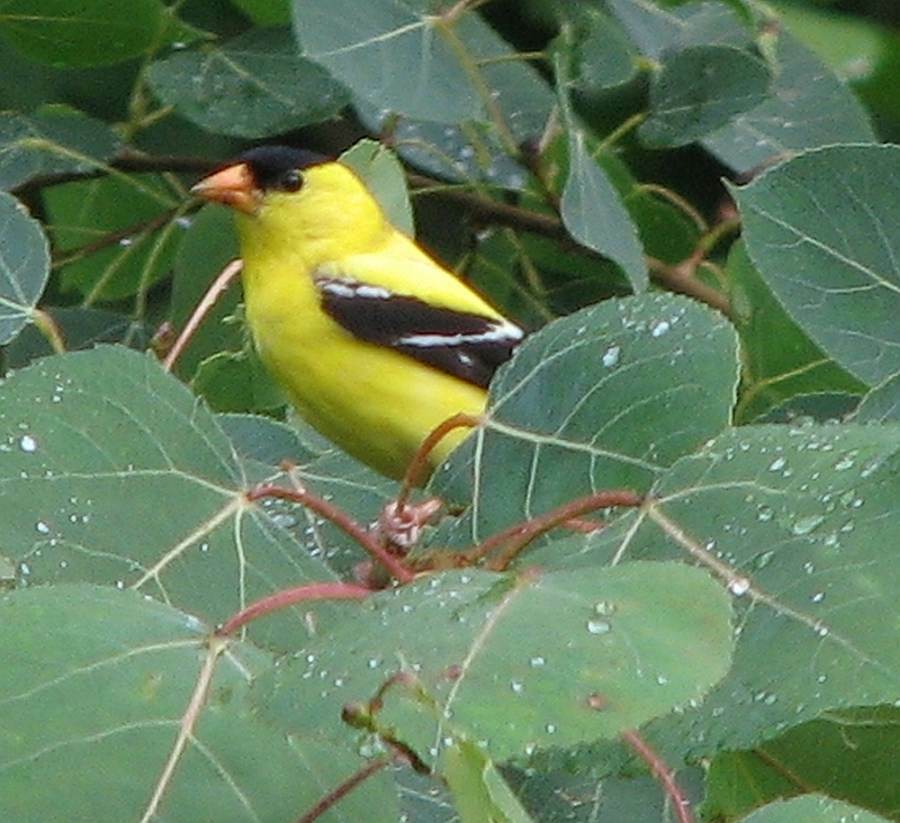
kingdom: Animalia
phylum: Chordata
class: Aves
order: Passeriformes
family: Fringillidae
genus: Spinus
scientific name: Spinus tristis
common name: American goldfinch
